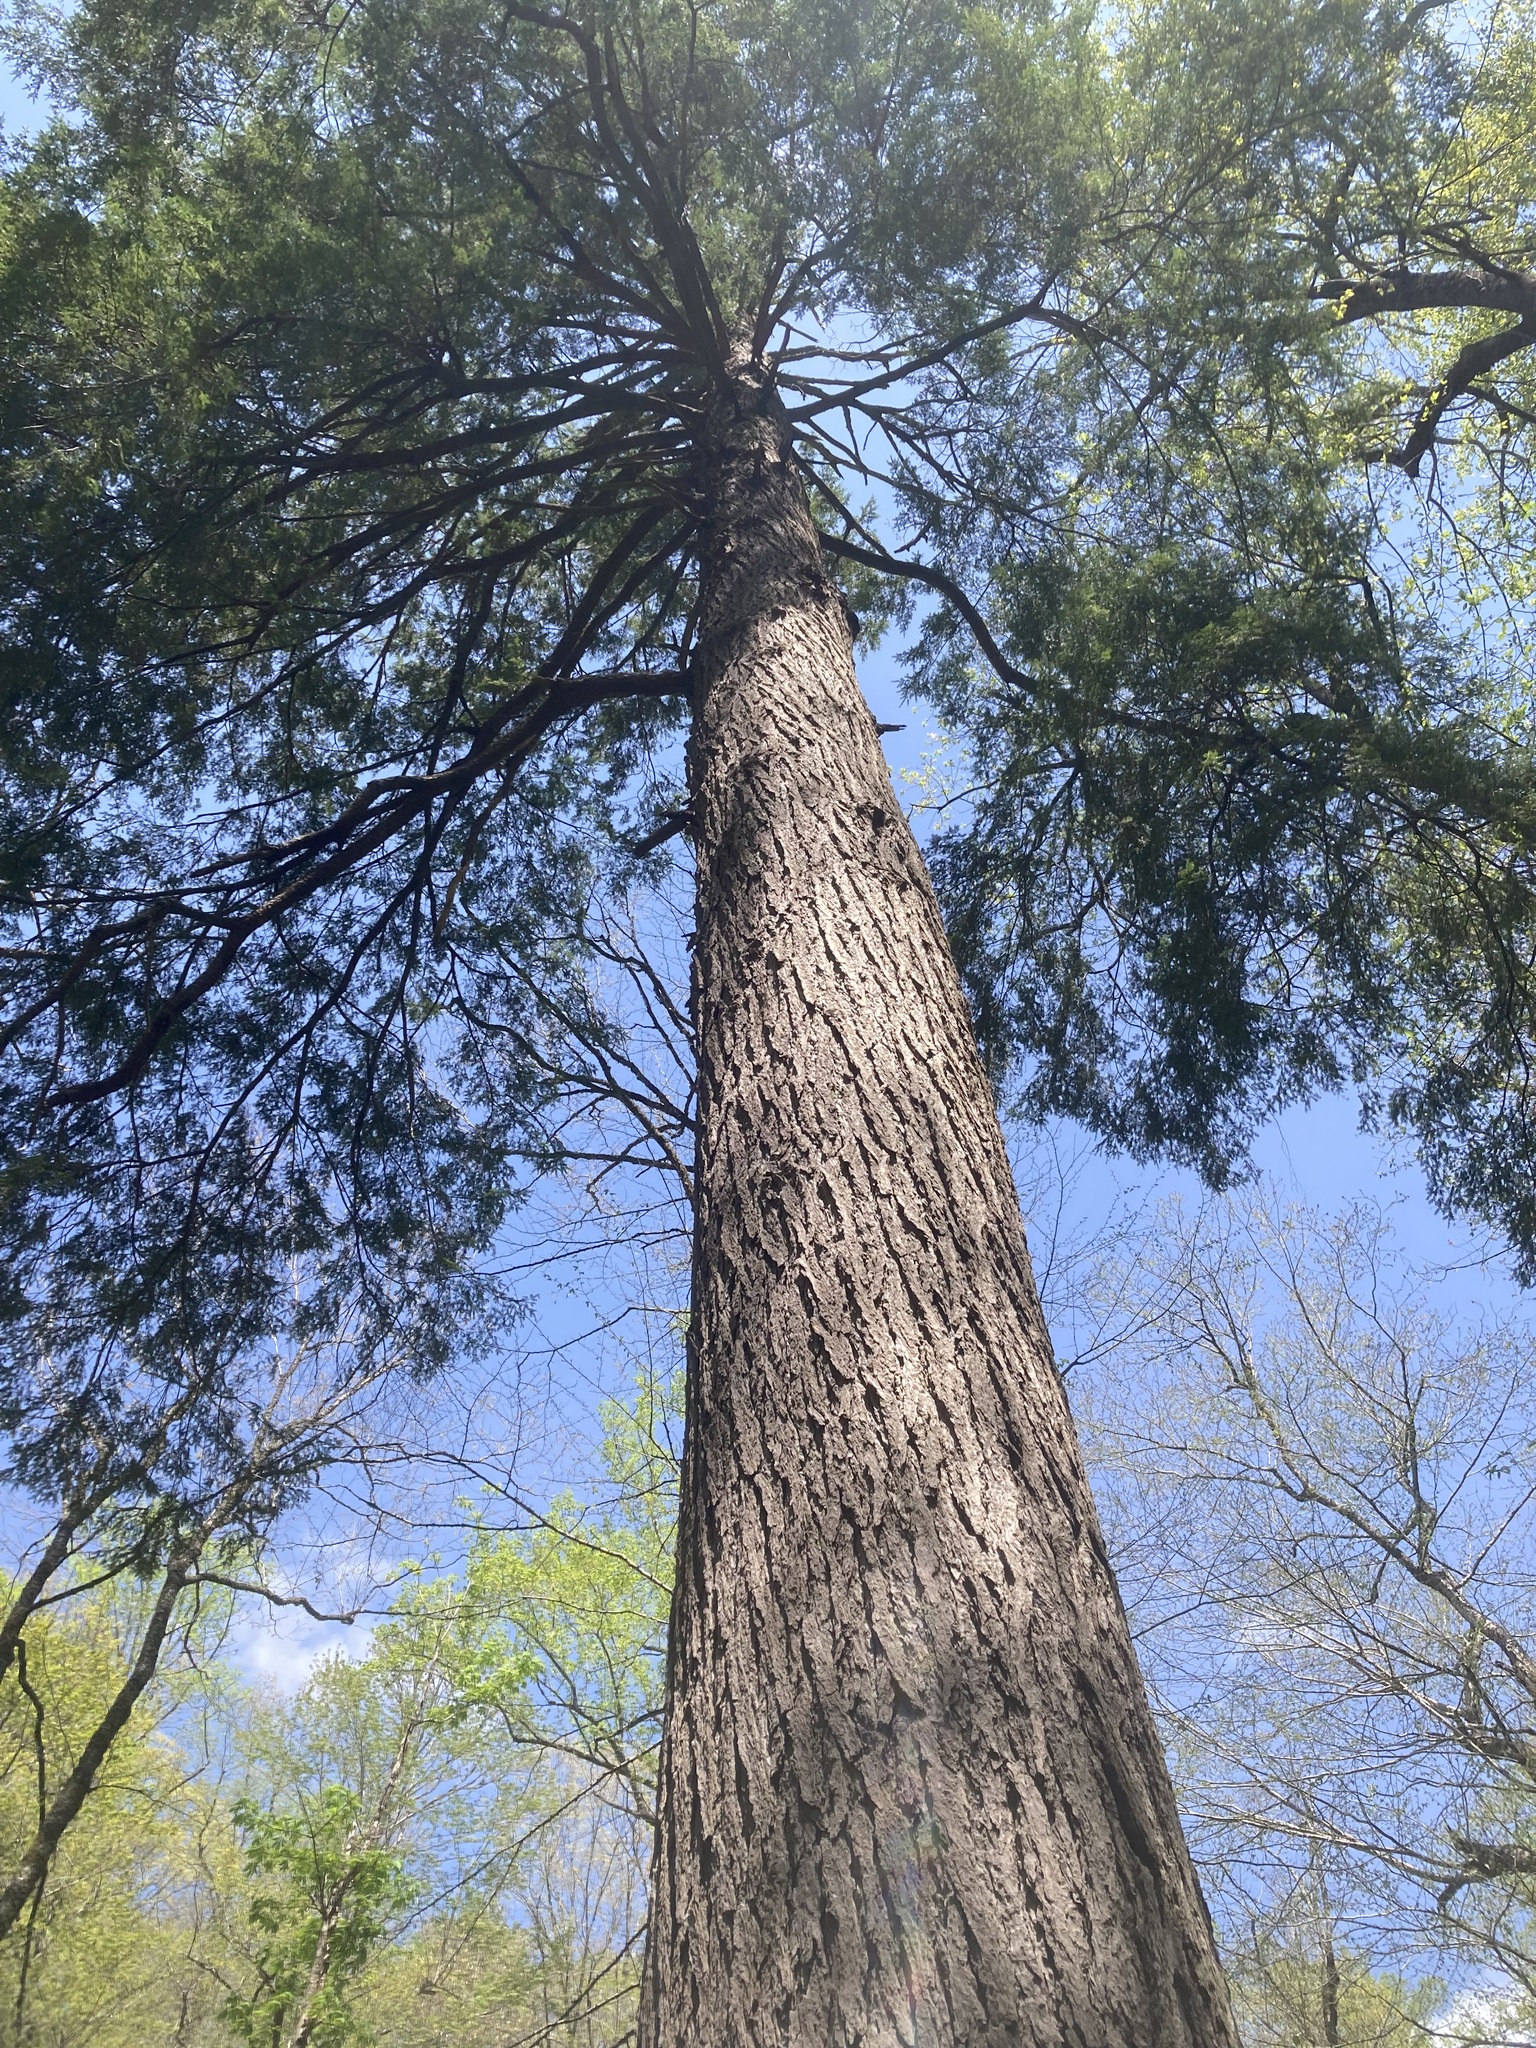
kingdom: Plantae
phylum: Tracheophyta
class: Pinopsida
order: Pinales
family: Pinaceae
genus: Tsuga
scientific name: Tsuga canadensis
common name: Eastern hemlock
